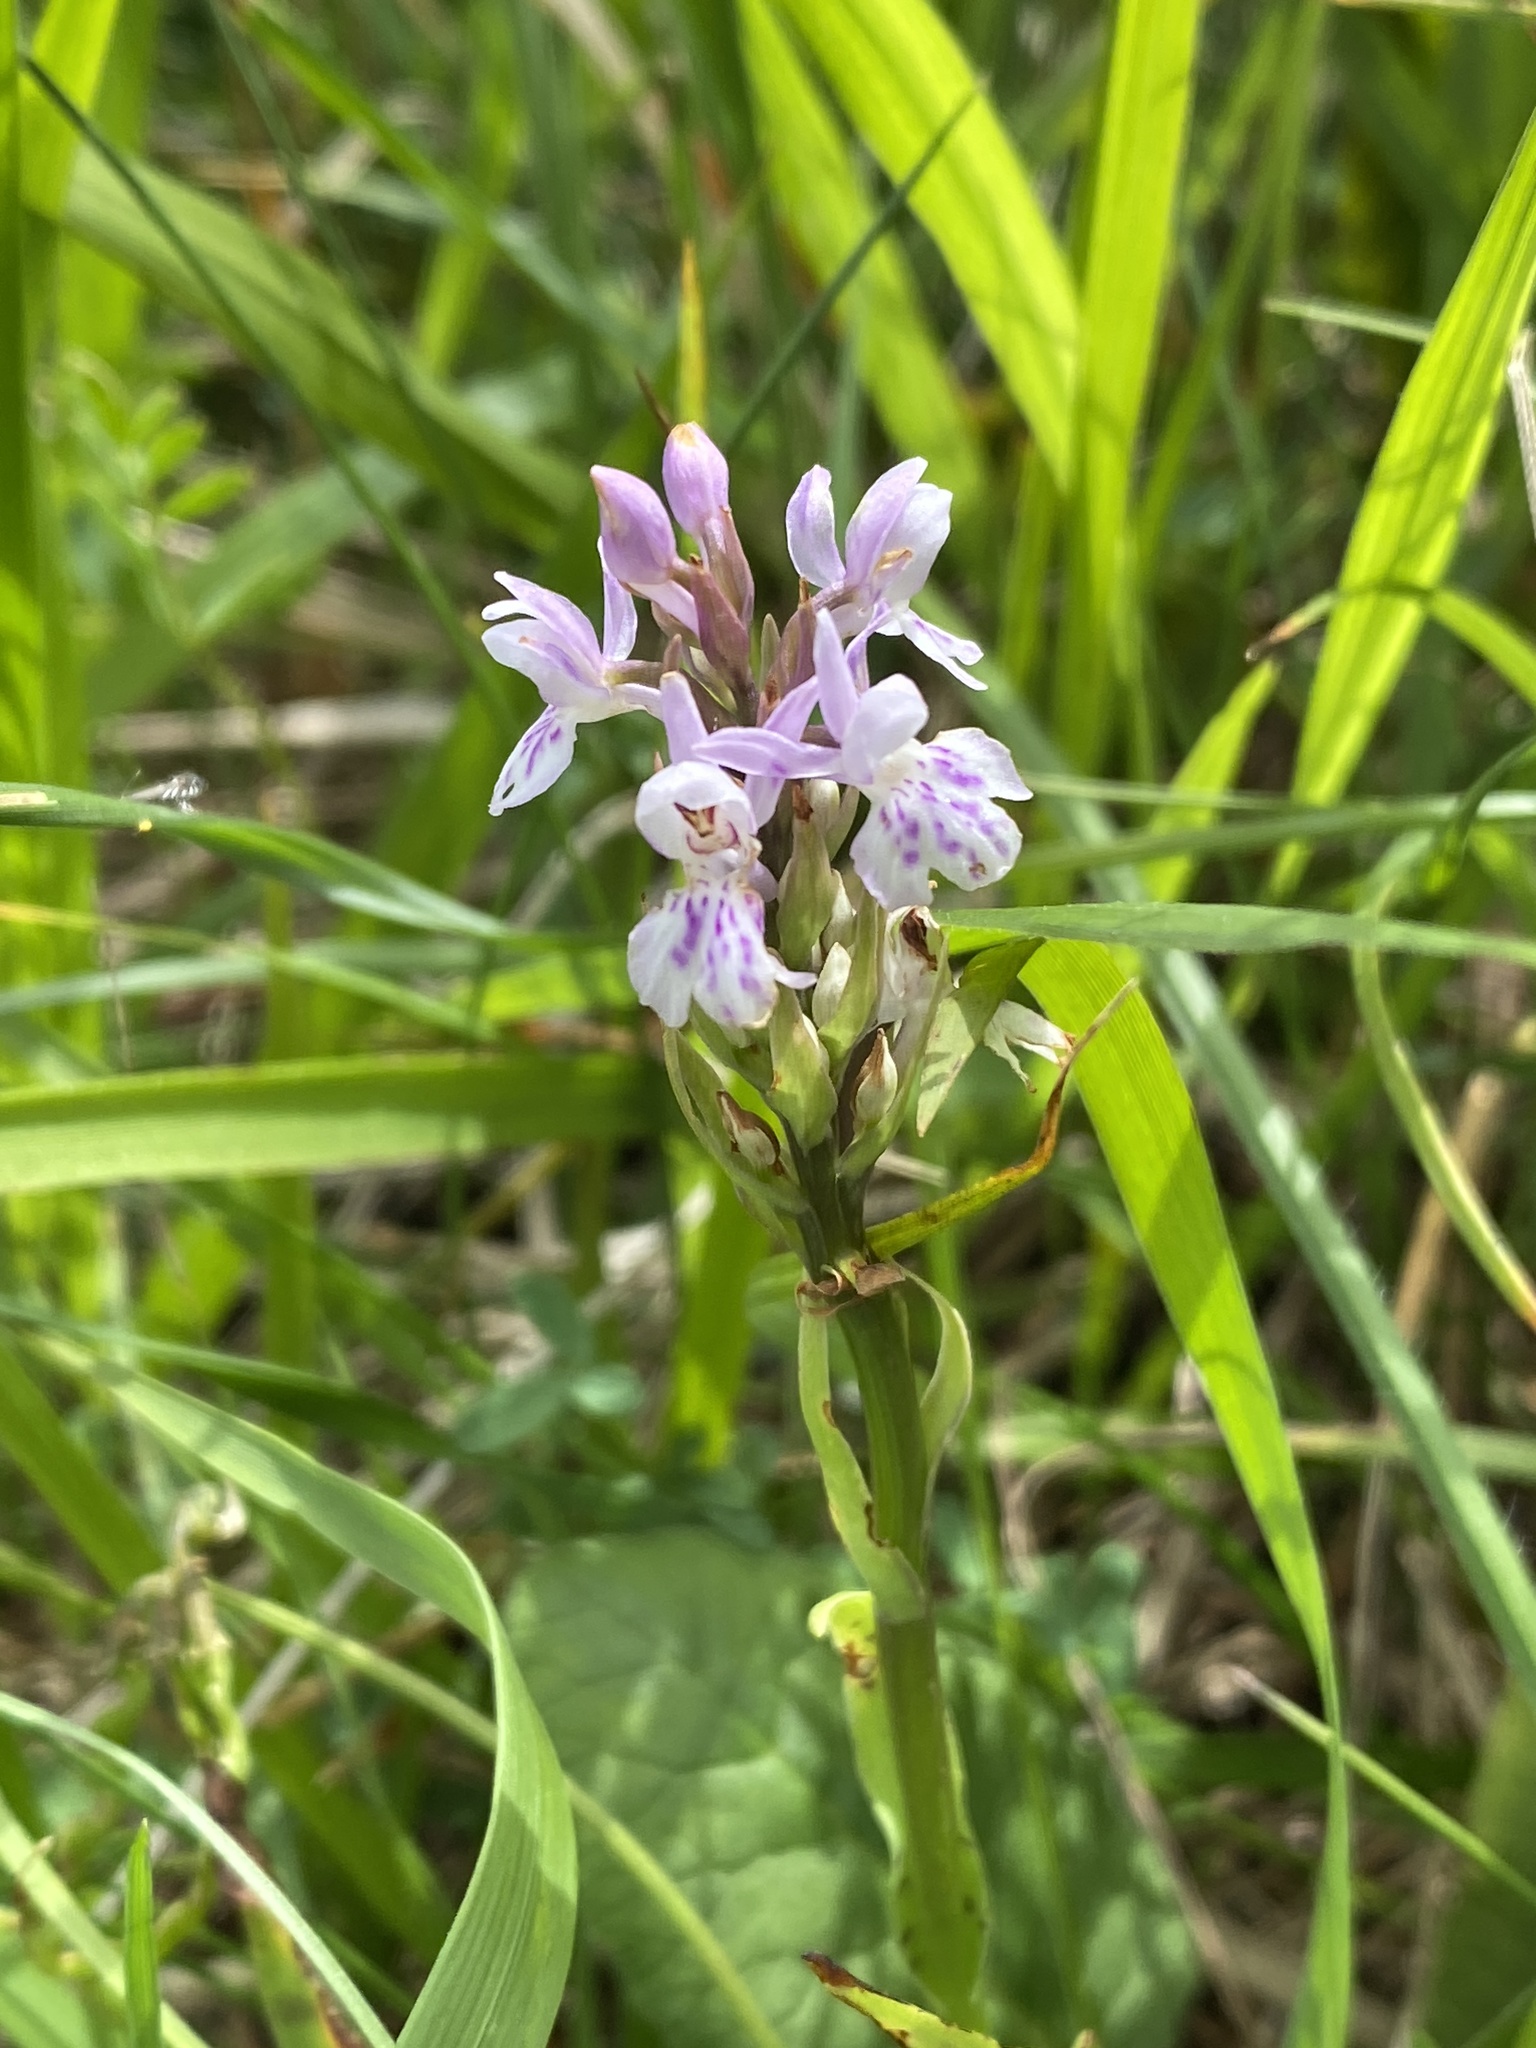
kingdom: Plantae
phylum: Tracheophyta
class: Liliopsida
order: Asparagales
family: Orchidaceae
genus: Dactylorhiza
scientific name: Dactylorhiza maculata
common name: Heath spotted-orchid
